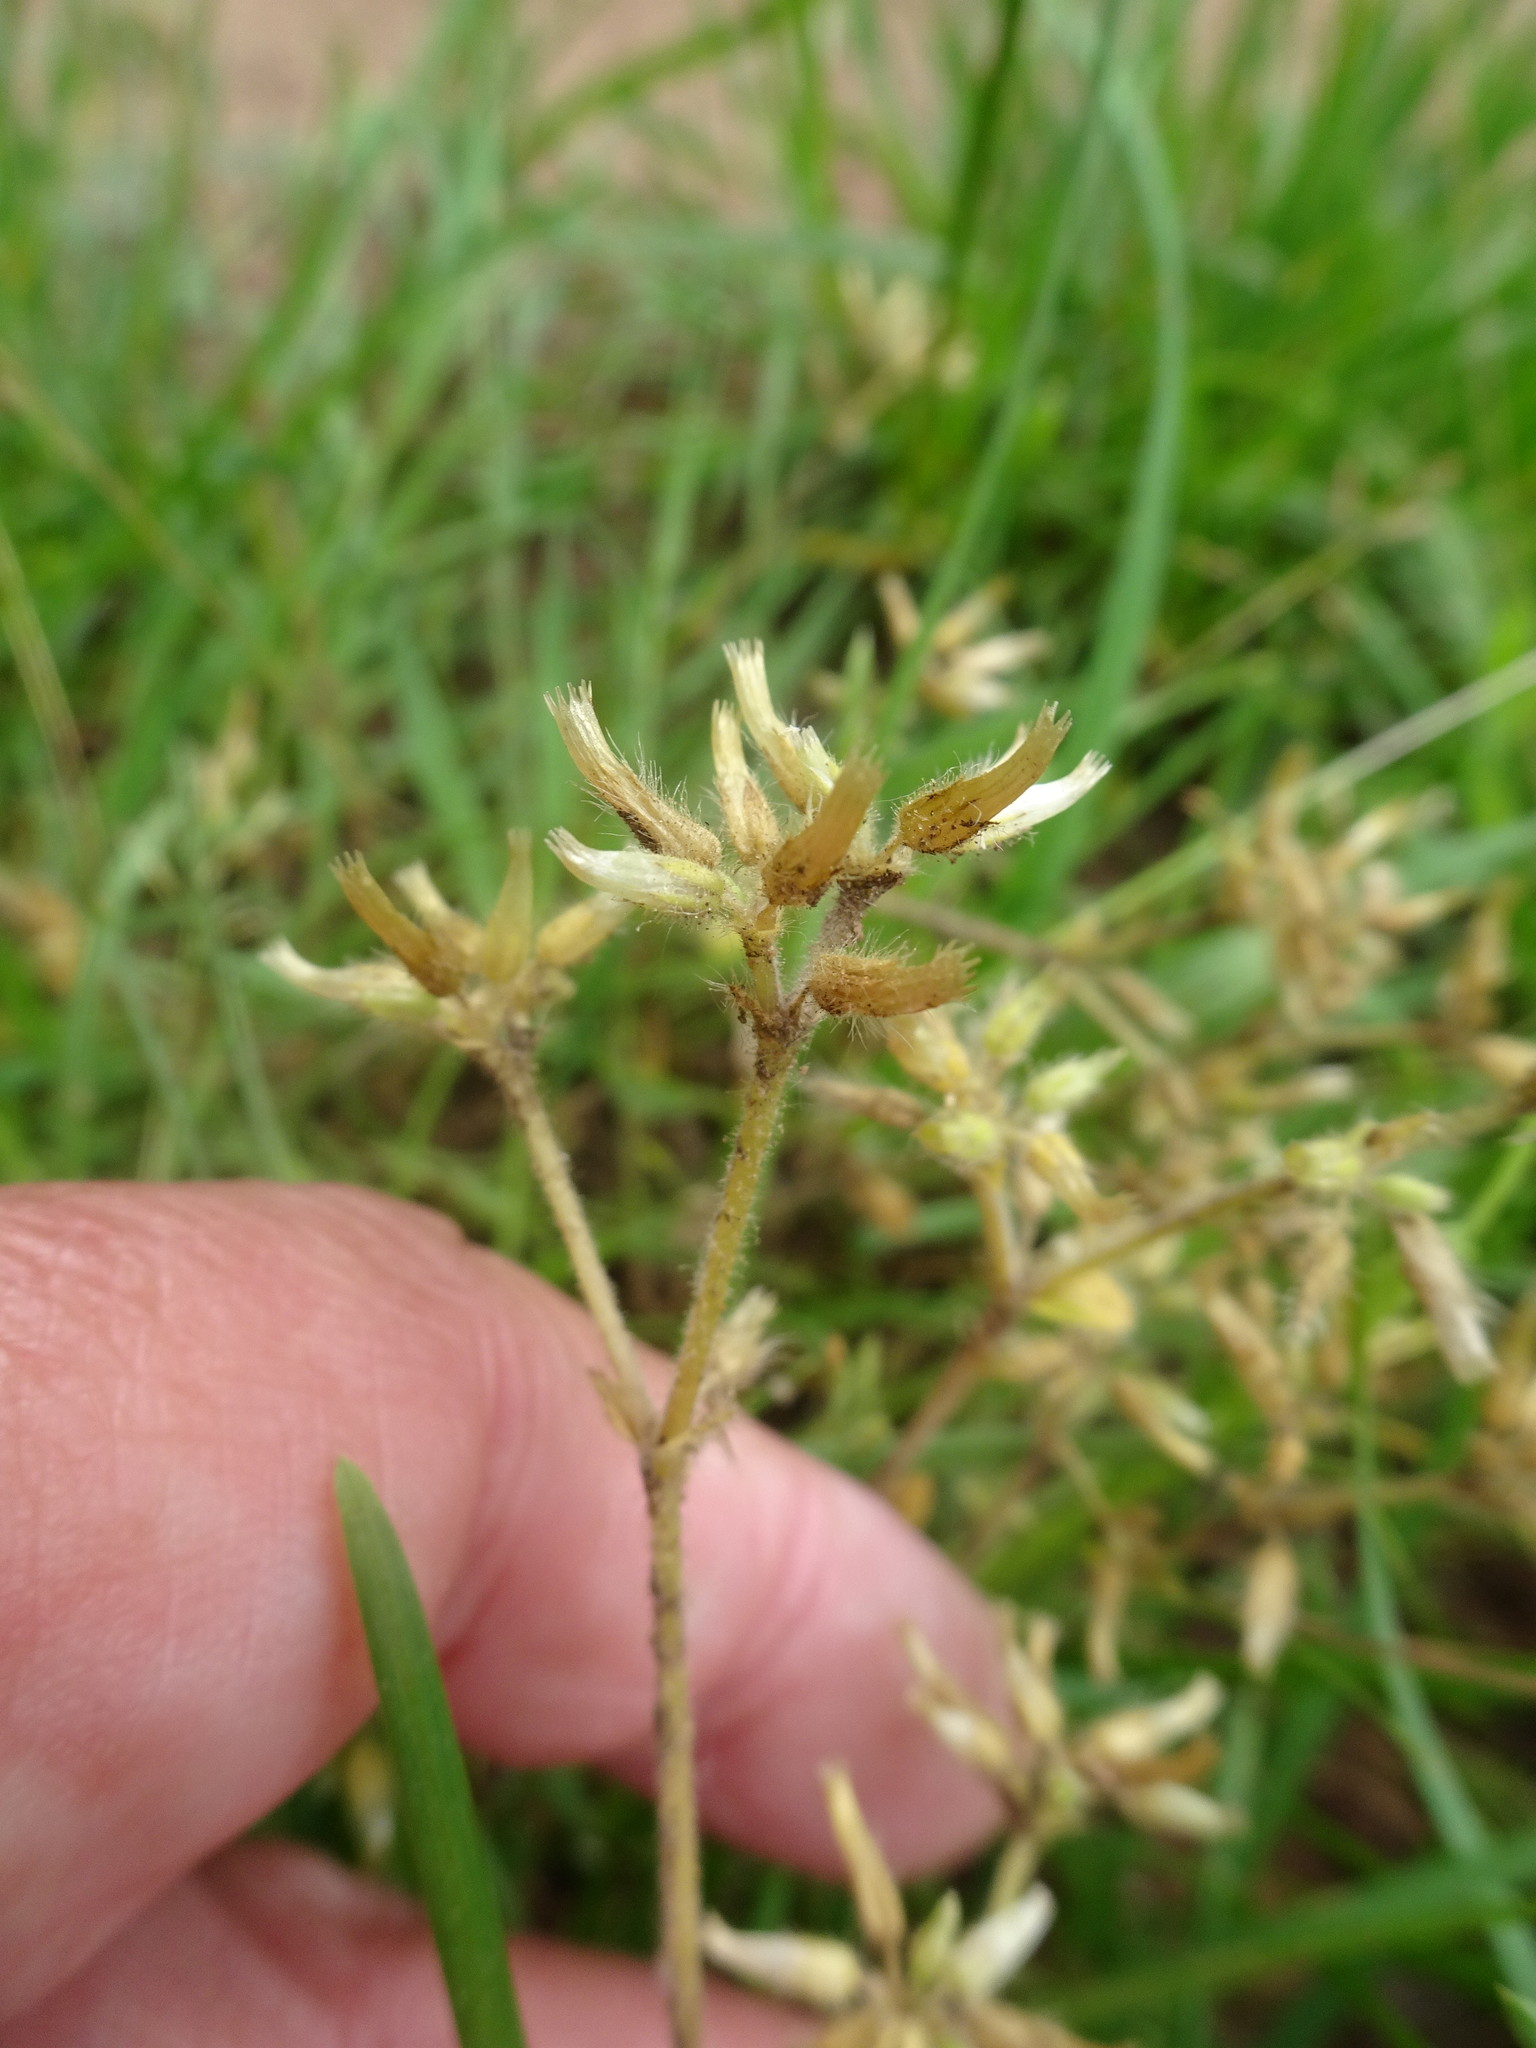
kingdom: Plantae
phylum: Tracheophyta
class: Magnoliopsida
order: Caryophyllales
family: Caryophyllaceae
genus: Cerastium
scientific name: Cerastium glomeratum
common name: Sticky chickweed
